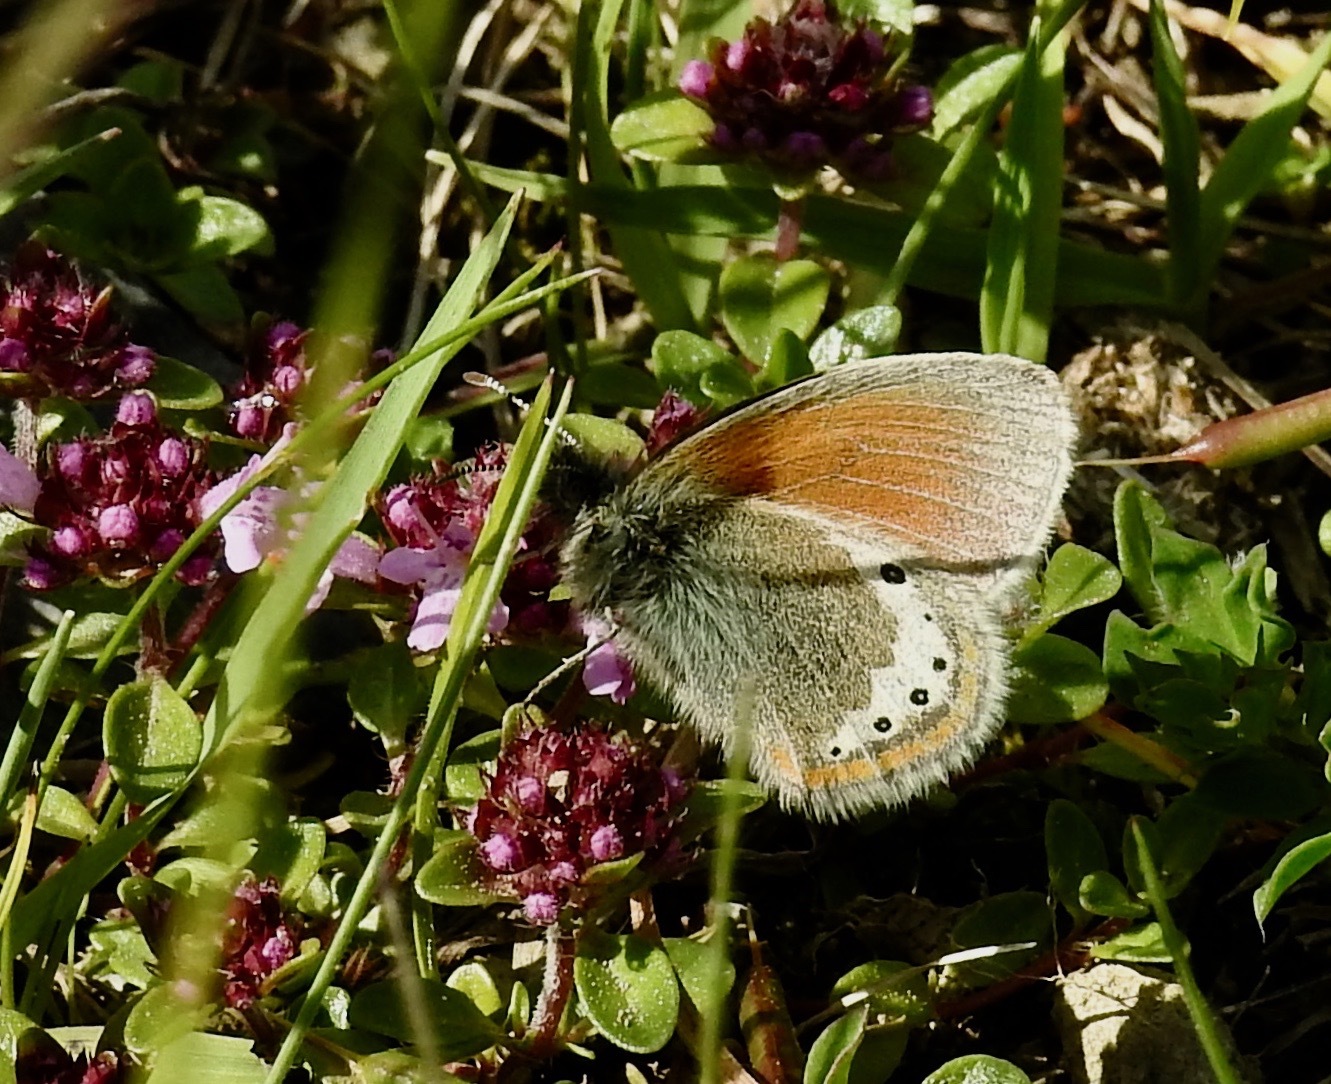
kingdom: Animalia
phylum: Arthropoda
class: Insecta
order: Lepidoptera
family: Nymphalidae
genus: Coenonympha
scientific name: Coenonympha
